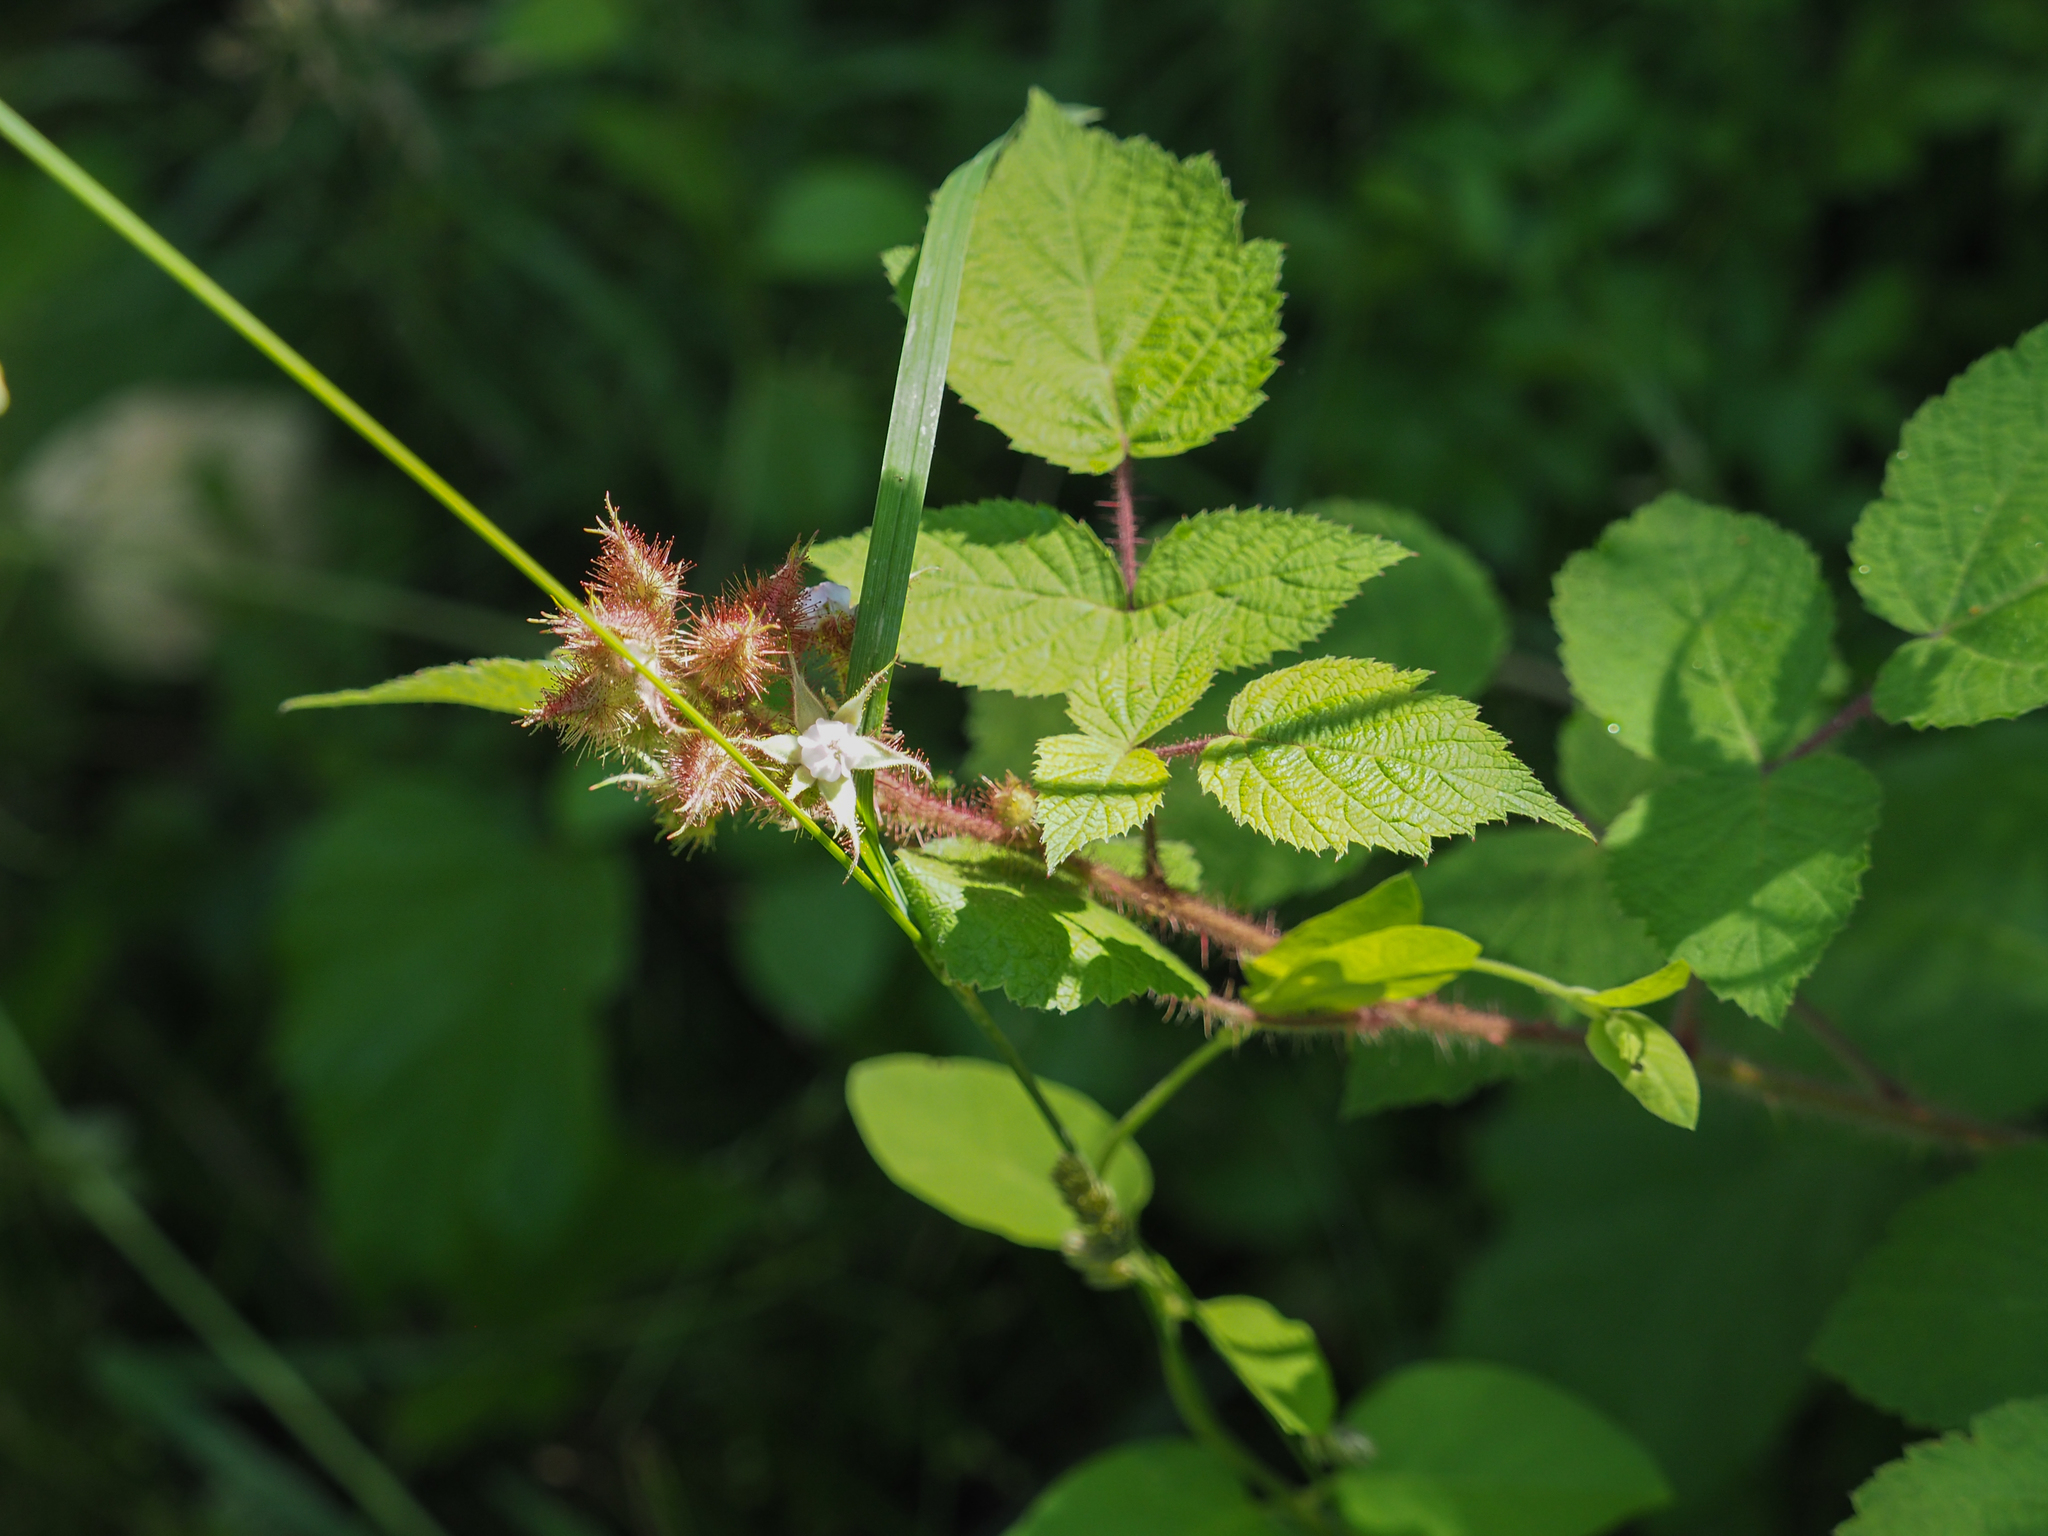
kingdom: Plantae
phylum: Tracheophyta
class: Magnoliopsida
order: Rosales
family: Rosaceae
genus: Rubus
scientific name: Rubus phoenicolasius
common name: Japanese wineberry
